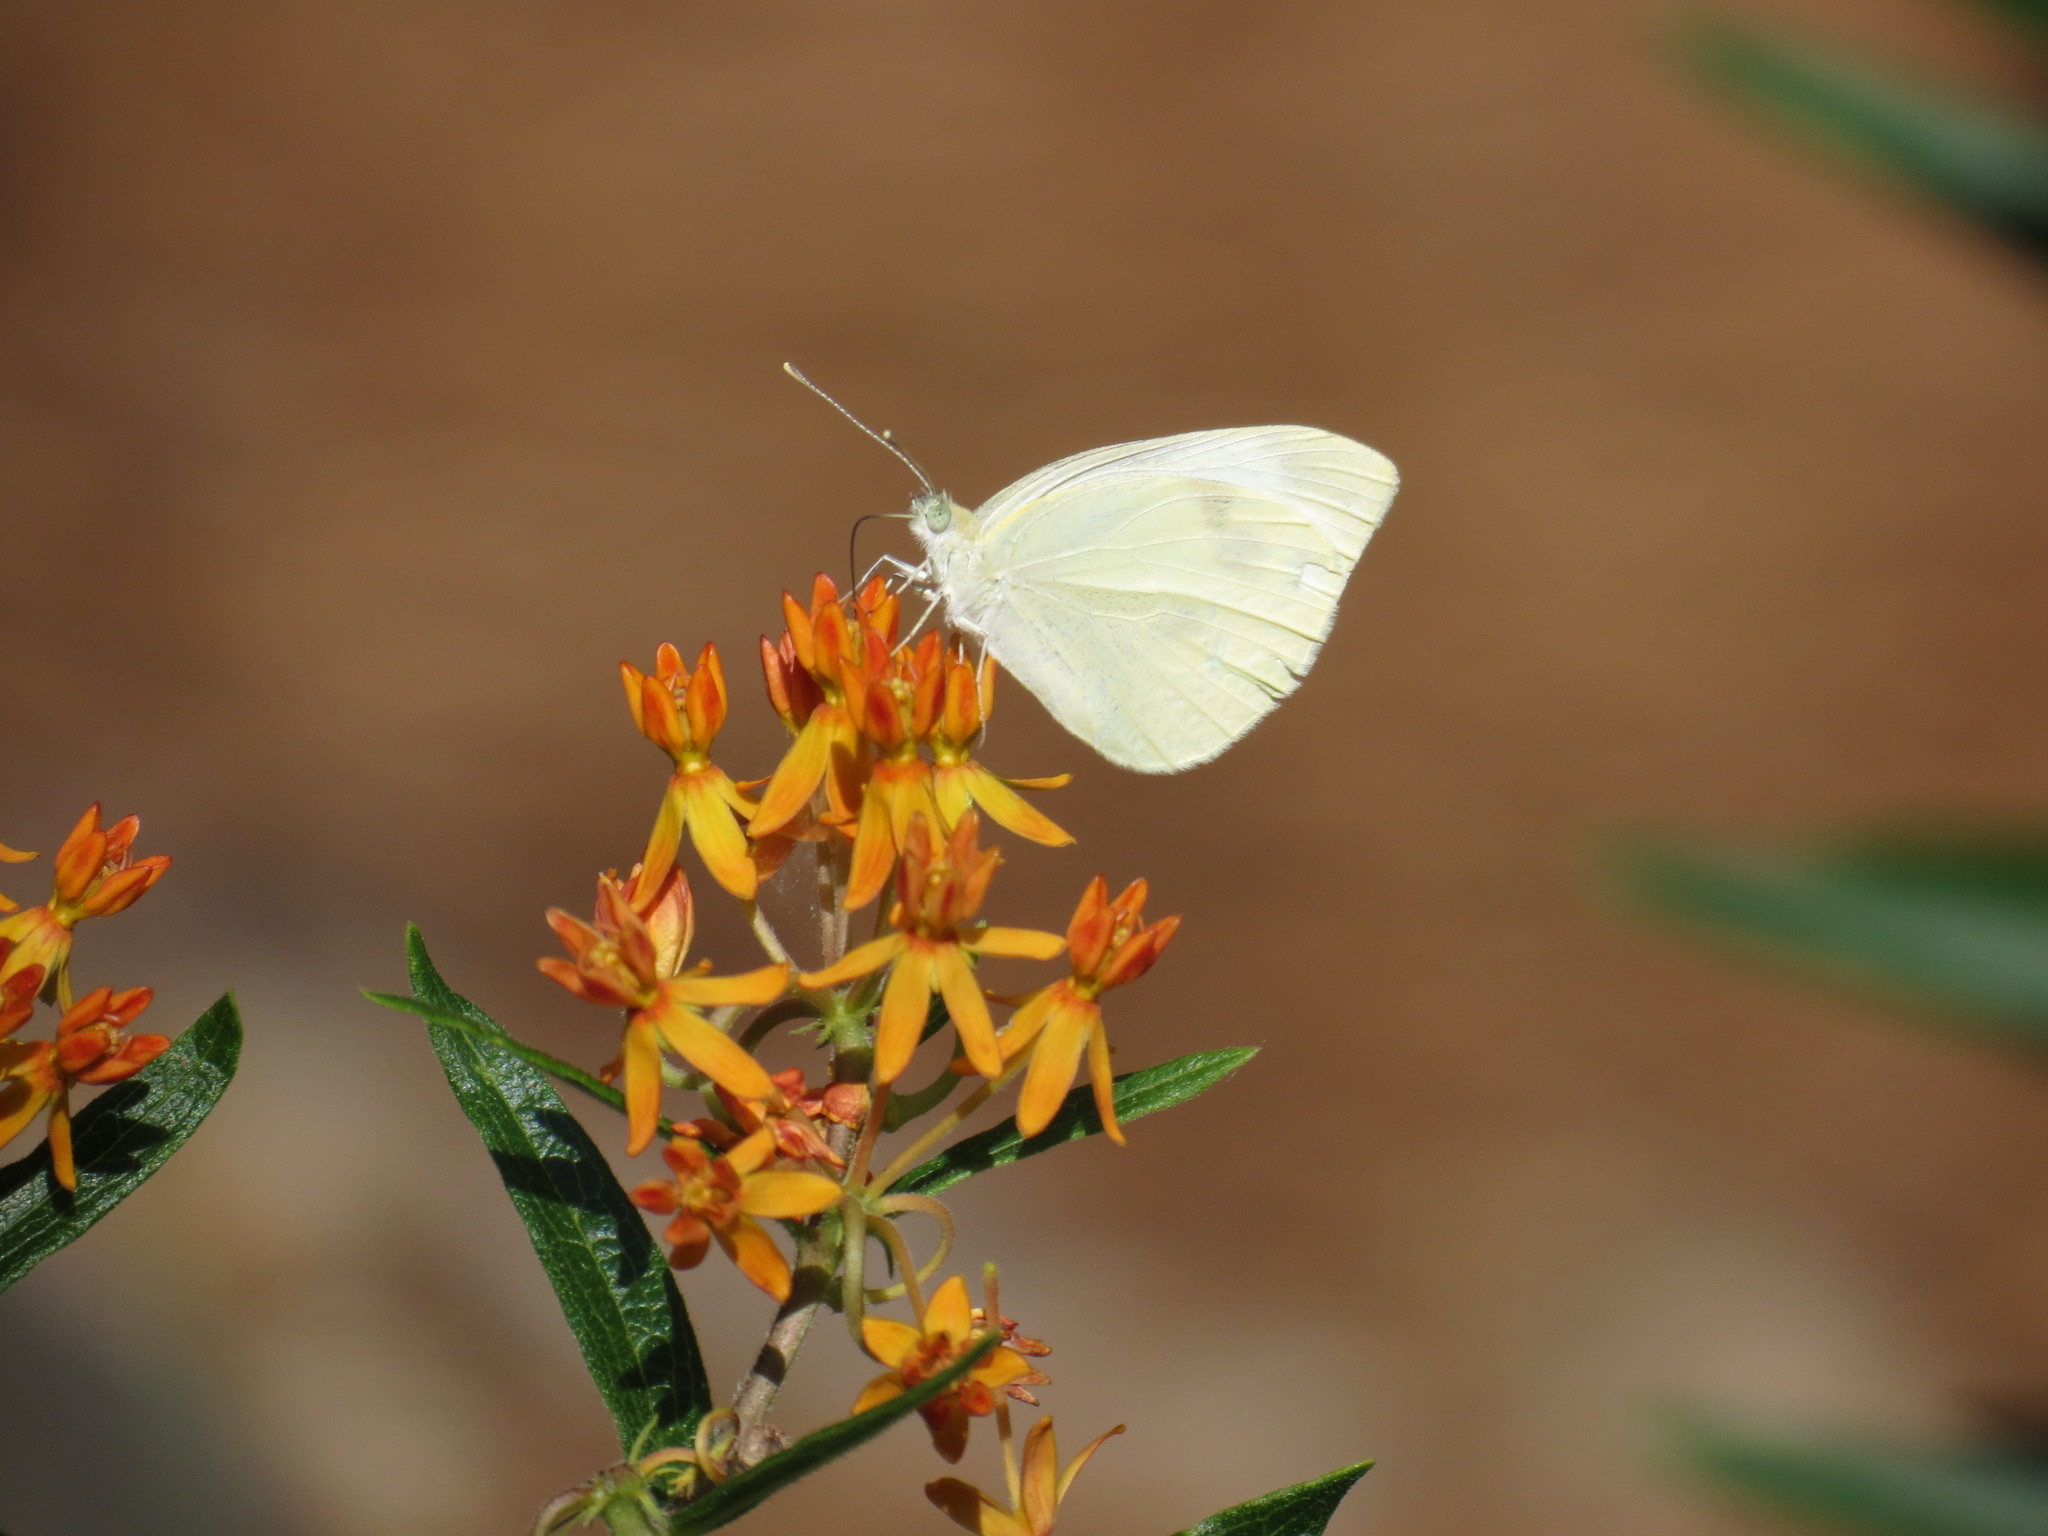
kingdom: Animalia
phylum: Arthropoda
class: Insecta
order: Lepidoptera
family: Pieridae
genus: Pieris
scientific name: Pieris rapae
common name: Small white
